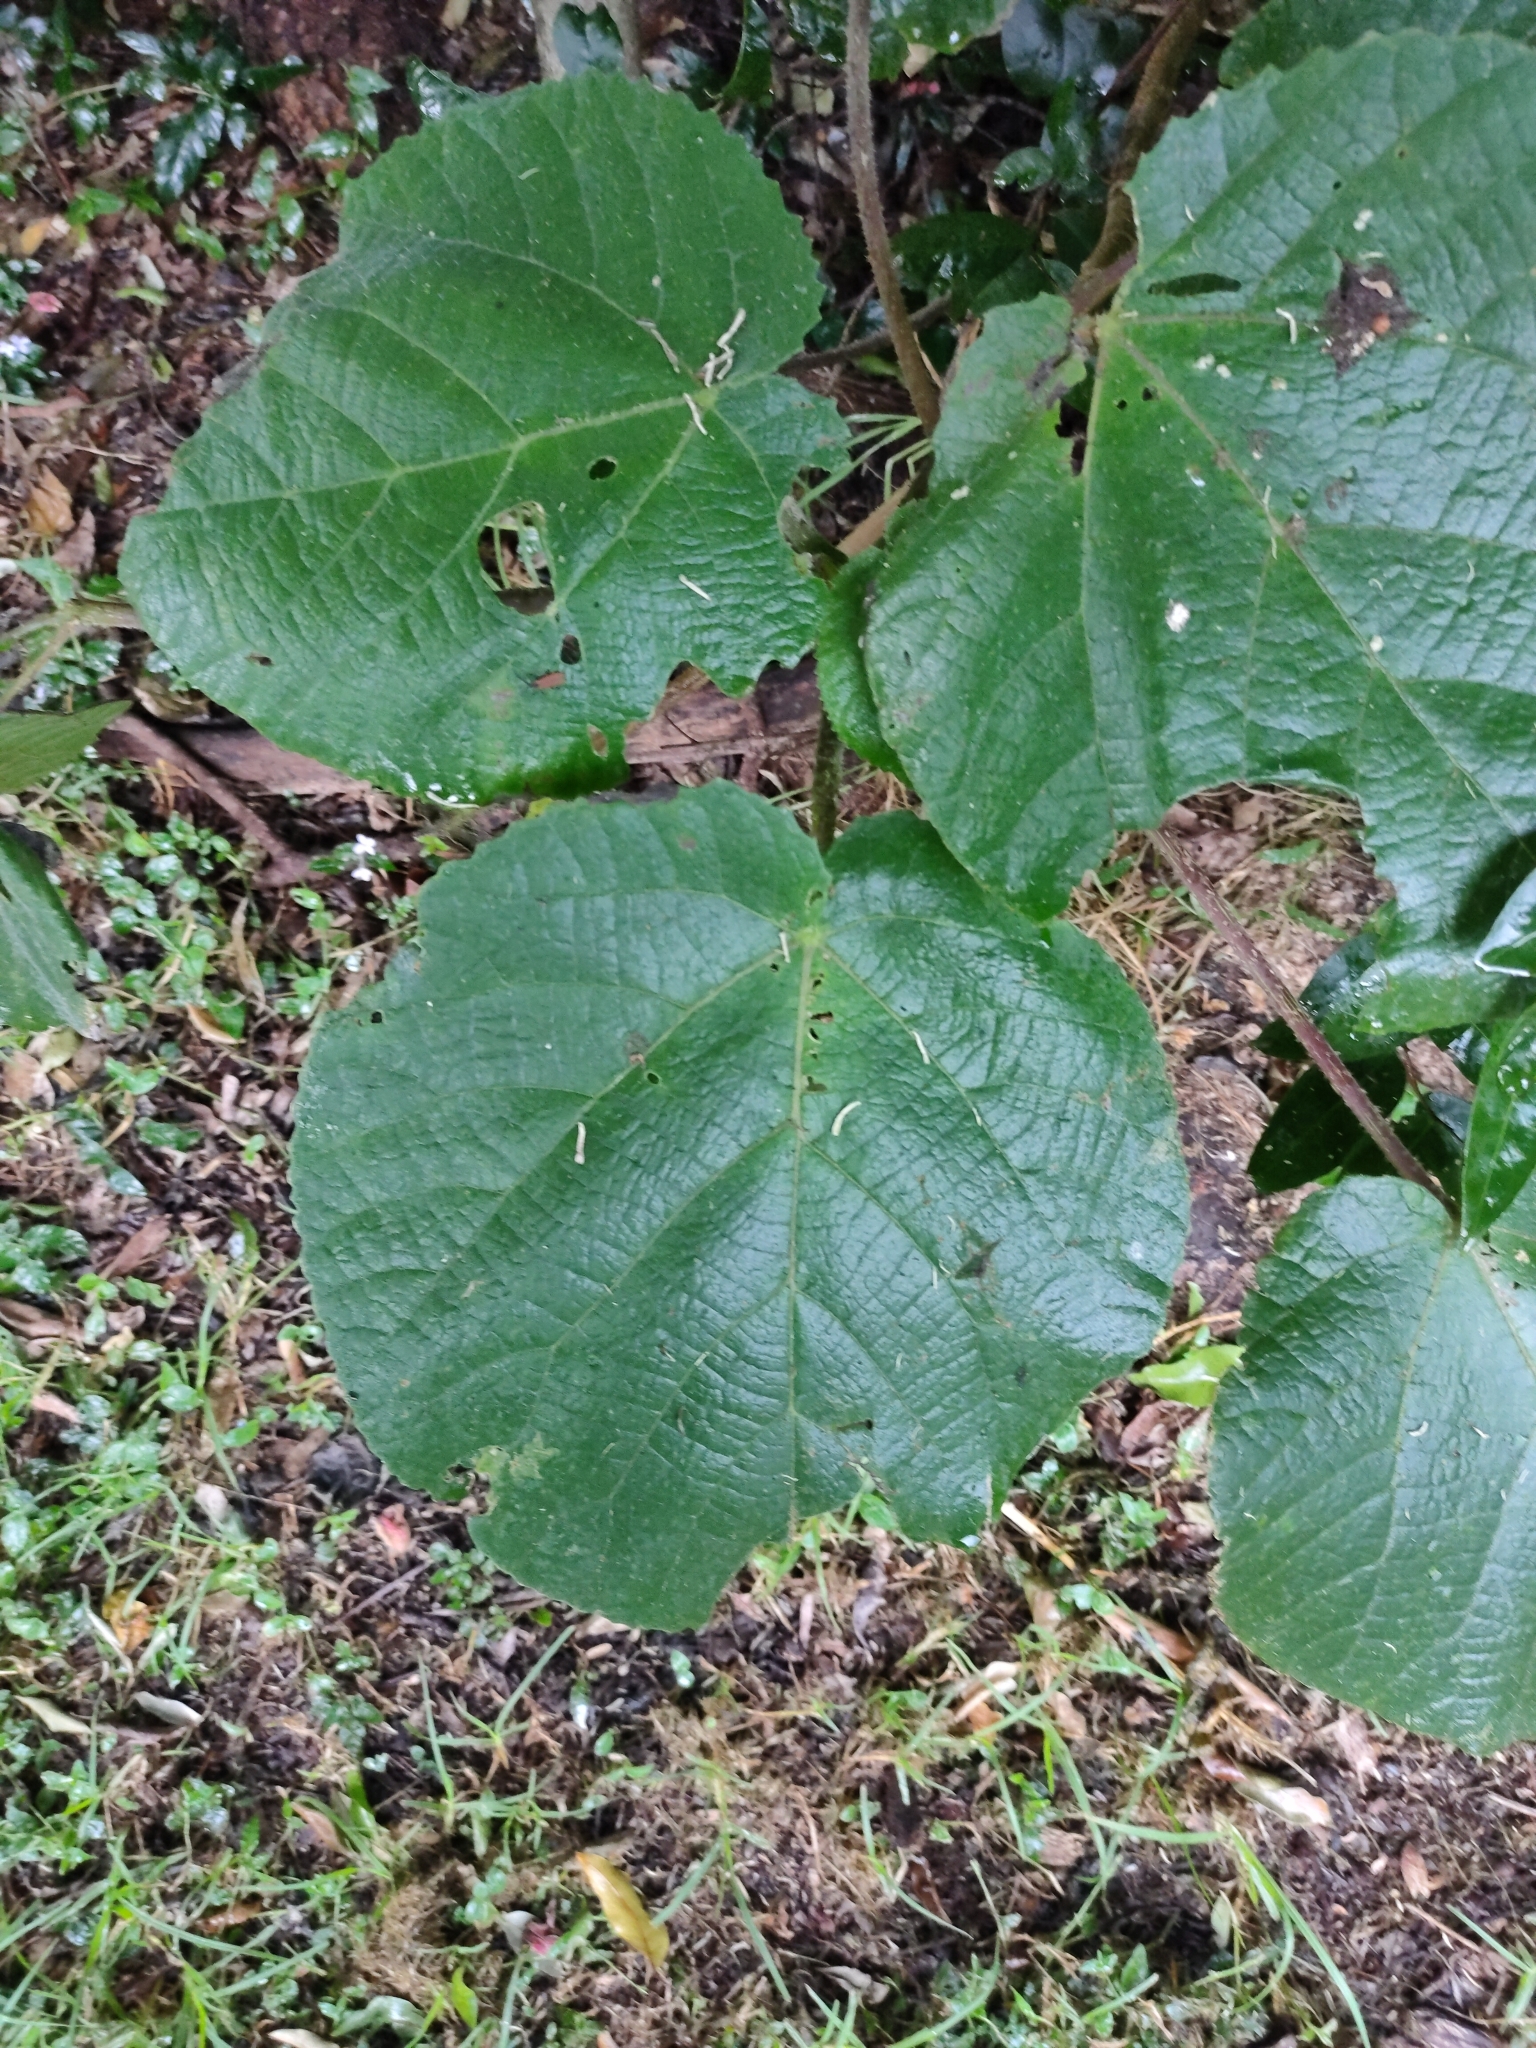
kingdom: Plantae
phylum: Tracheophyta
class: Magnoliopsida
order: Rosales
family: Urticaceae
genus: Dendrocnide
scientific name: Dendrocnide excelsa
